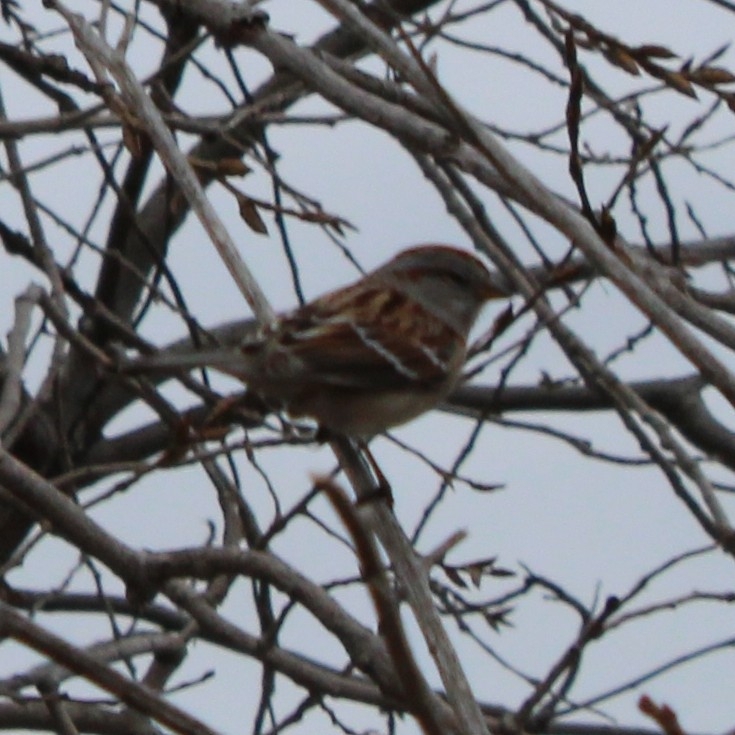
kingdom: Animalia
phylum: Chordata
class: Aves
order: Passeriformes
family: Passerellidae
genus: Spizelloides
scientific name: Spizelloides arborea
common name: American tree sparrow
